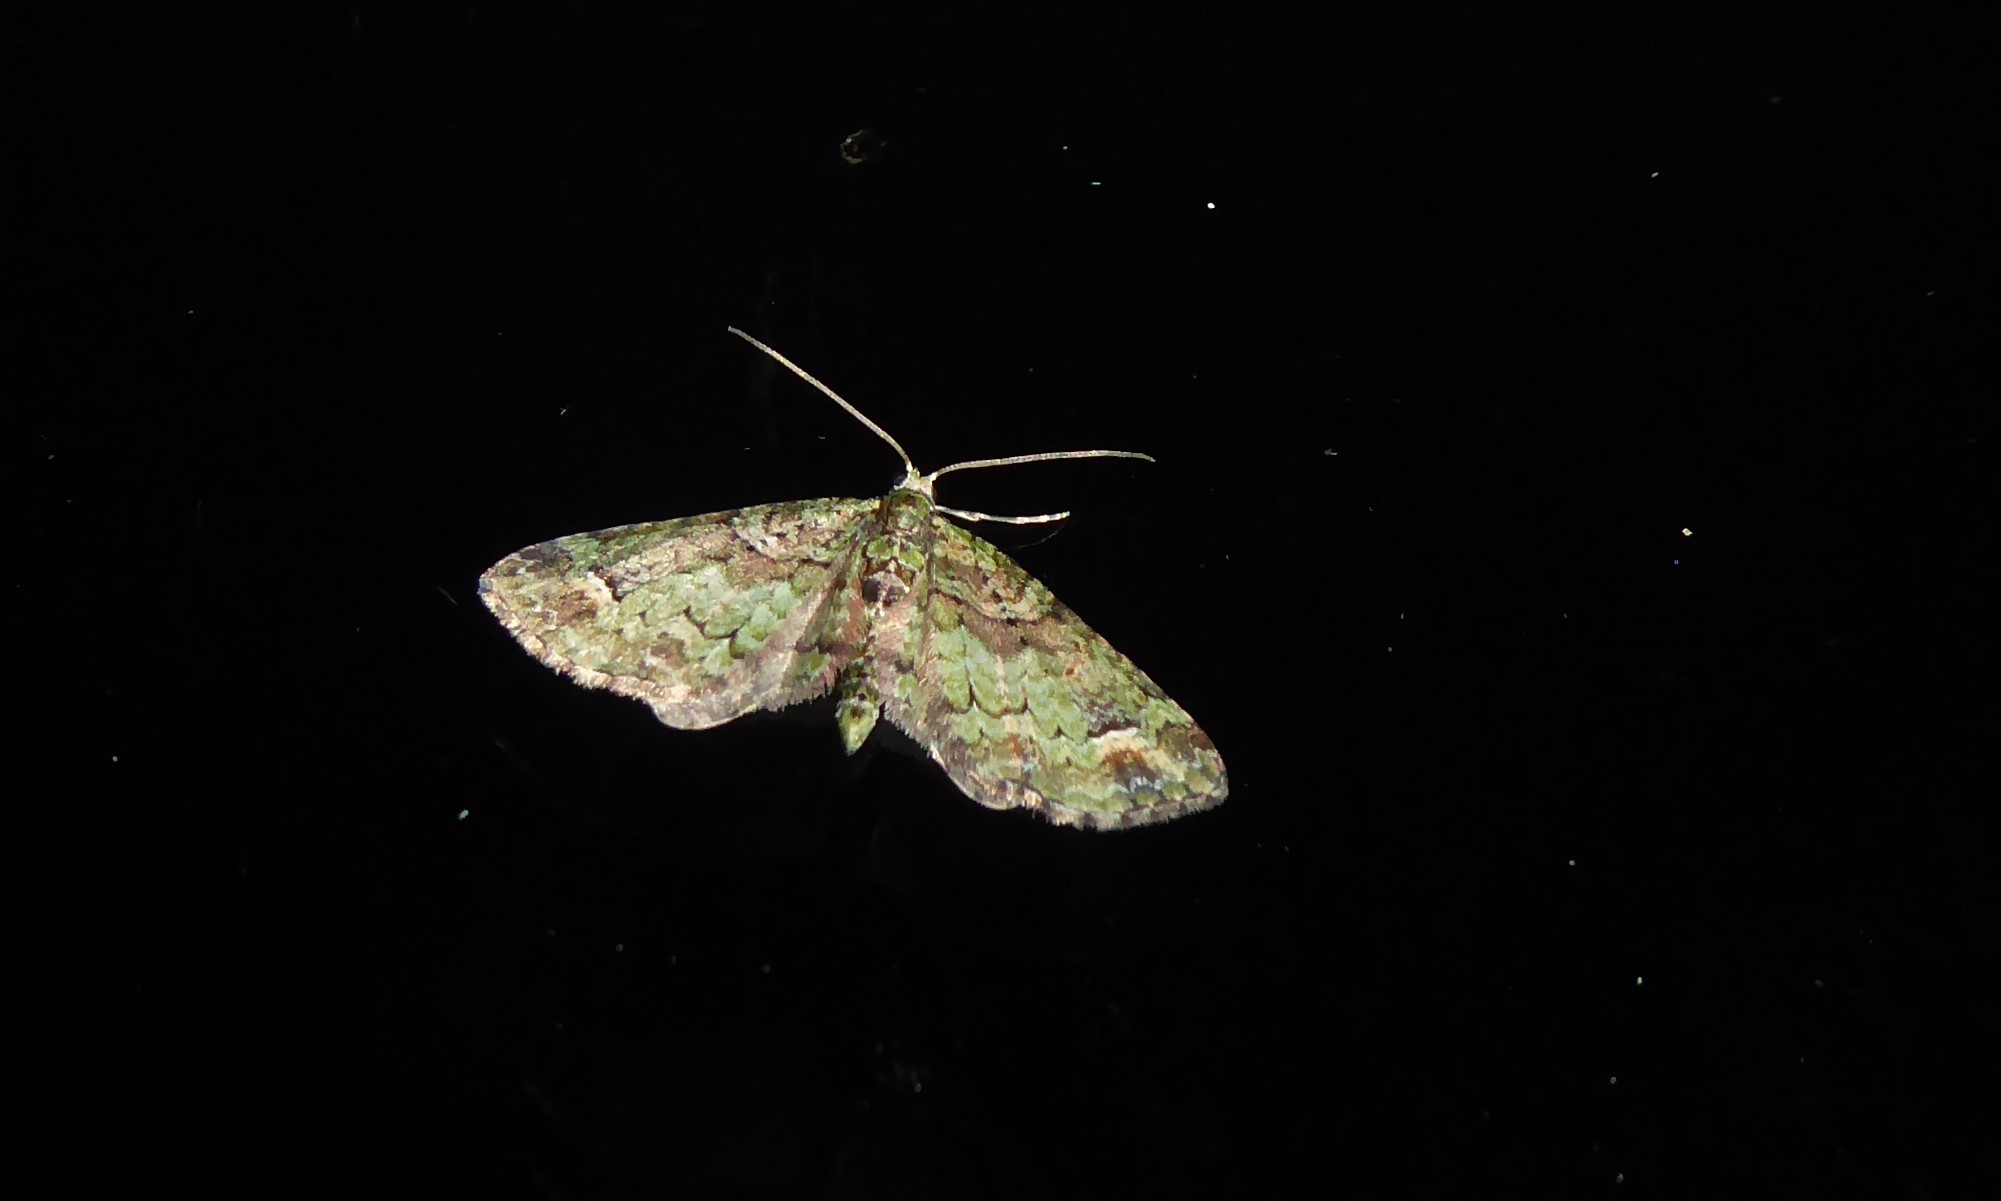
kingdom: Animalia
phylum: Arthropoda
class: Insecta
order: Lepidoptera
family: Geometridae
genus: Idaea
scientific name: Idaea mutanda
